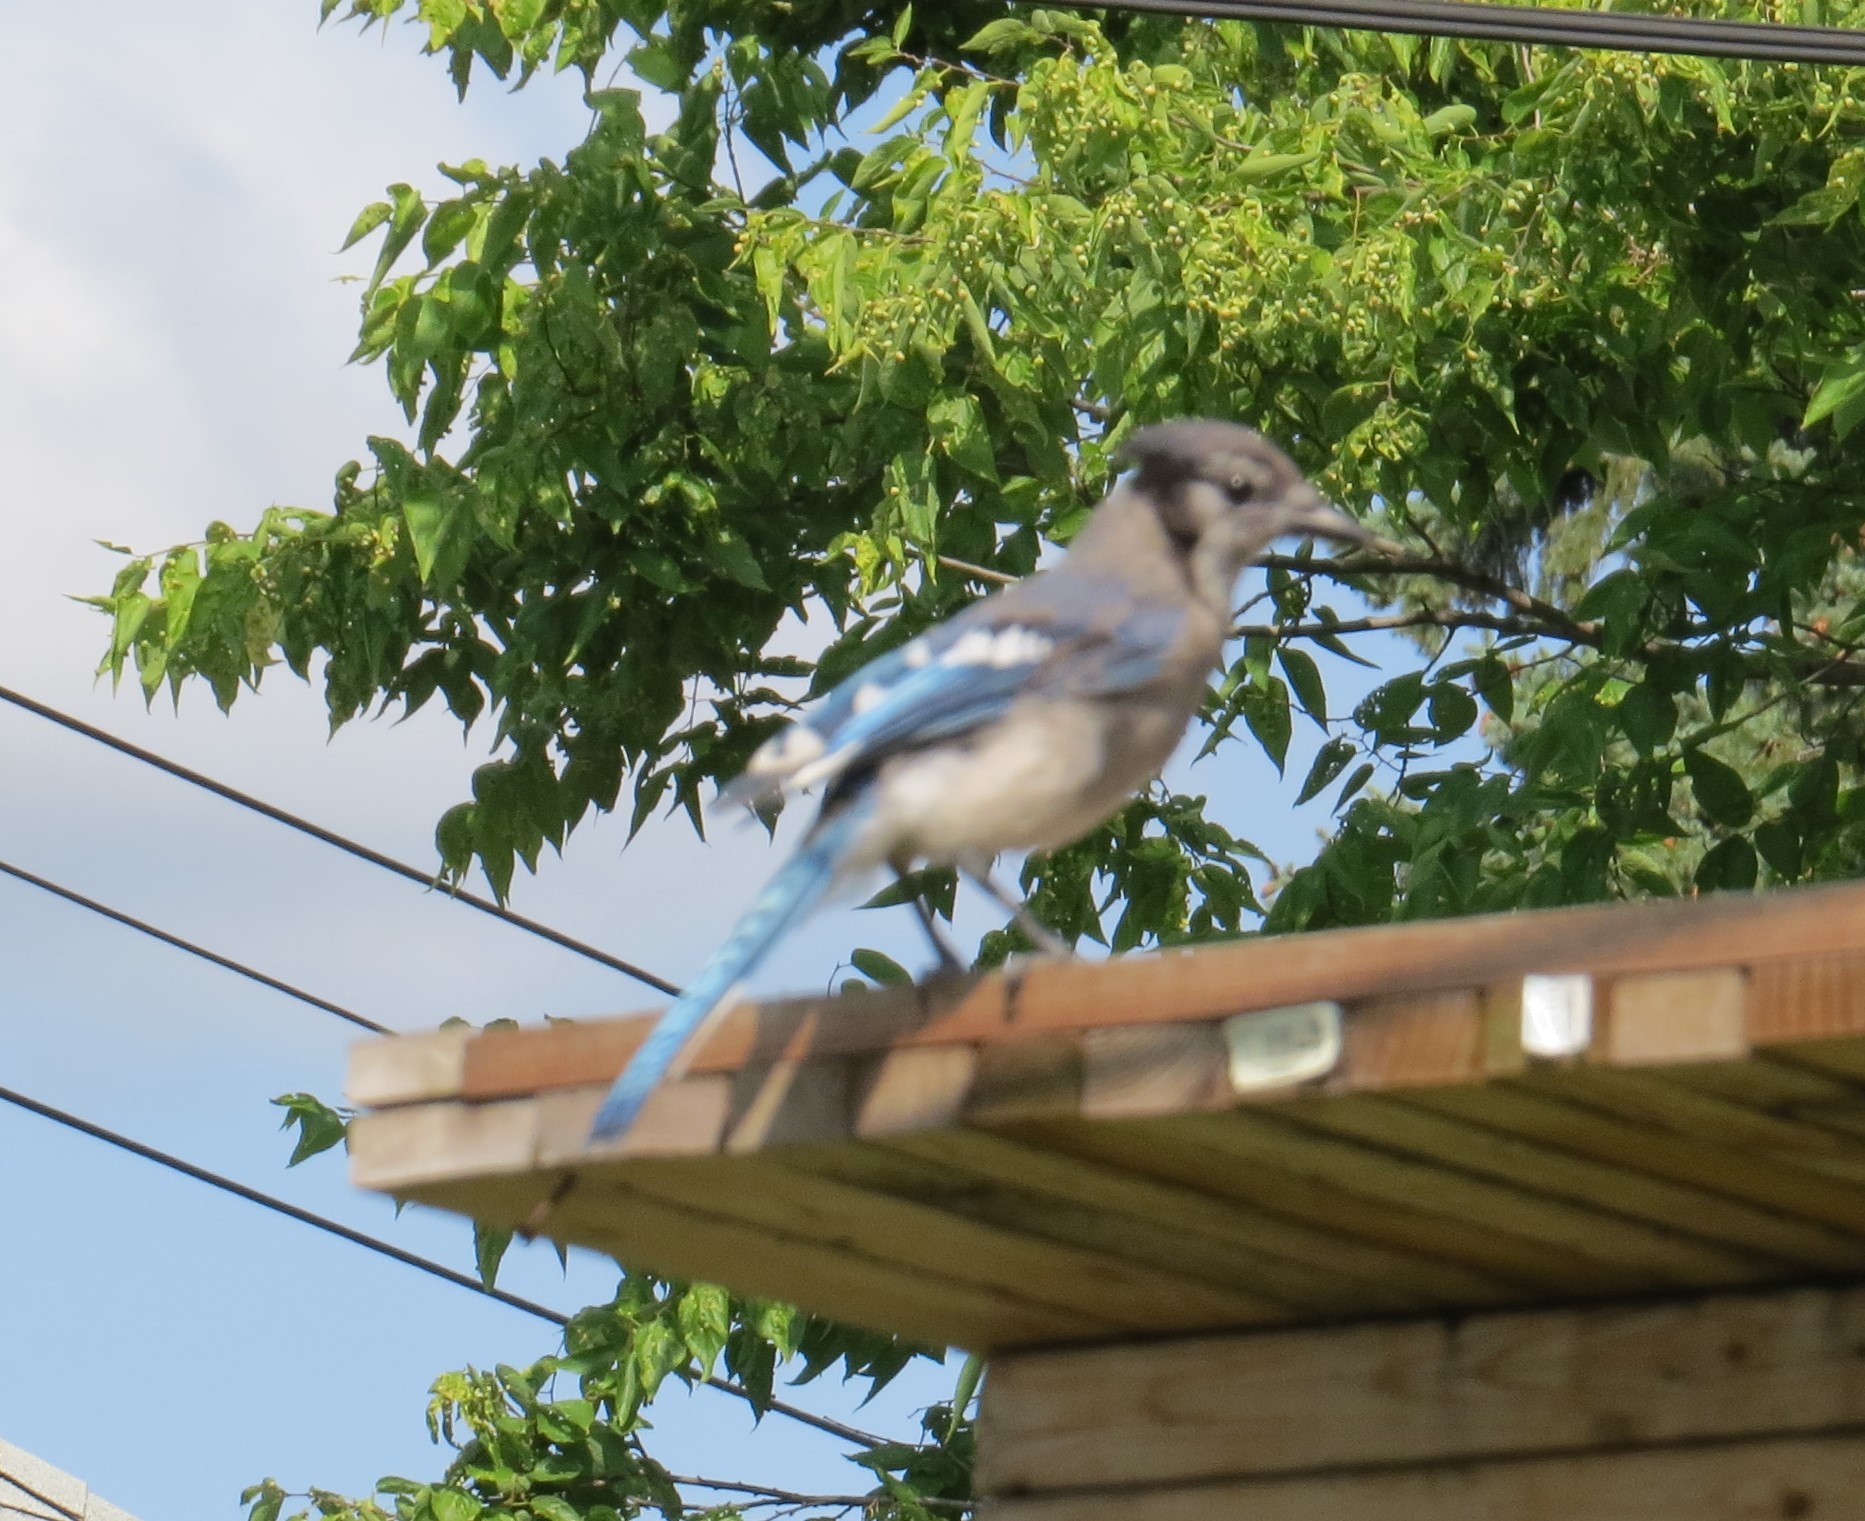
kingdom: Animalia
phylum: Chordata
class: Aves
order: Passeriformes
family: Corvidae
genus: Cyanocitta
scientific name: Cyanocitta cristata
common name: Blue jay
